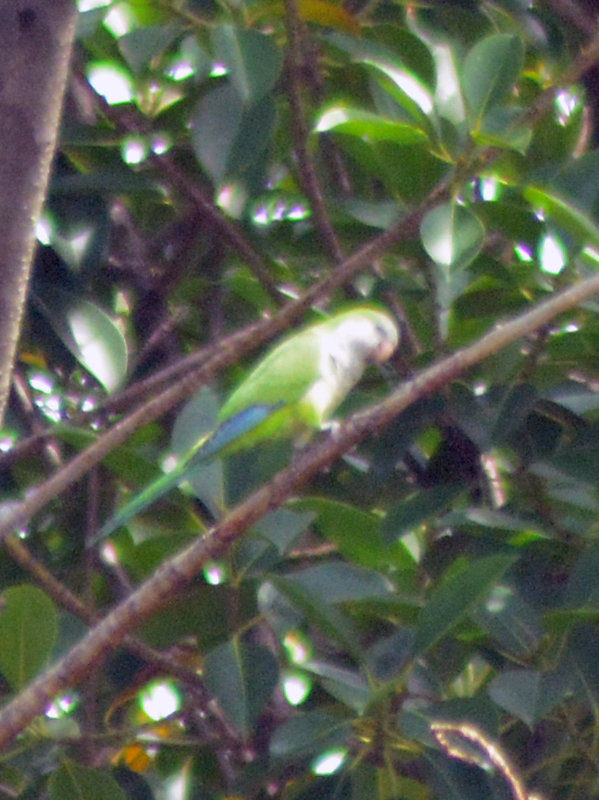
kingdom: Animalia
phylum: Chordata
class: Aves
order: Psittaciformes
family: Psittacidae
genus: Myiopsitta
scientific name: Myiopsitta monachus
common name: Monk parakeet
